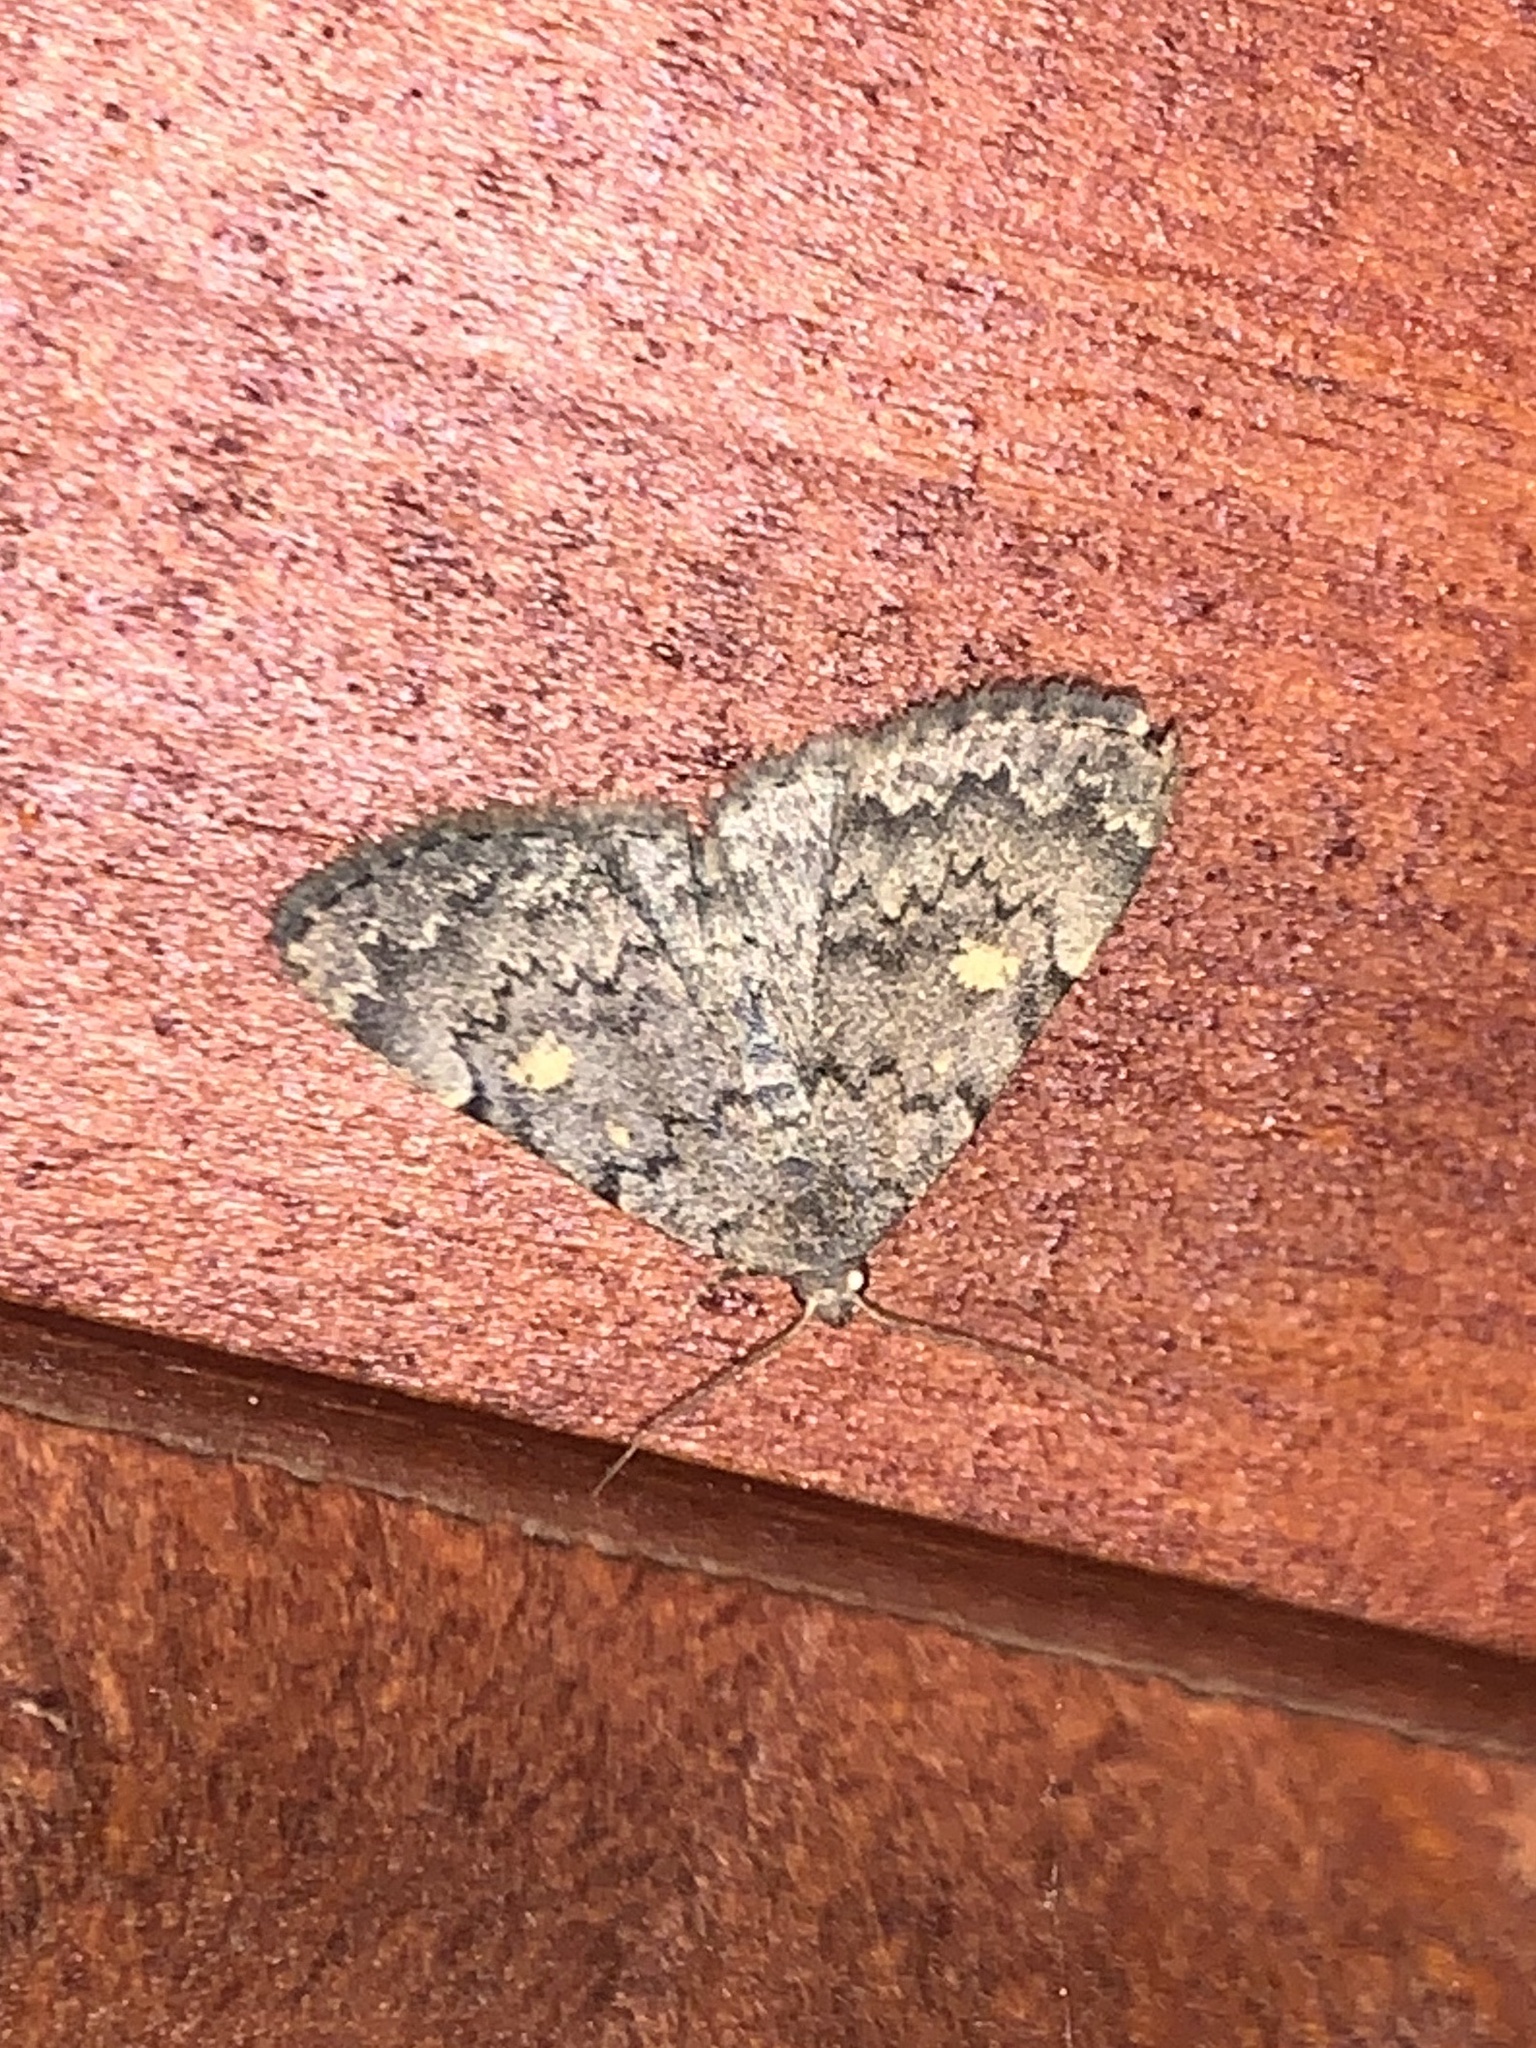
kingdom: Animalia
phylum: Arthropoda
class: Insecta
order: Lepidoptera
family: Erebidae
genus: Idia
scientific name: Idia aemula
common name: Common idia moth
